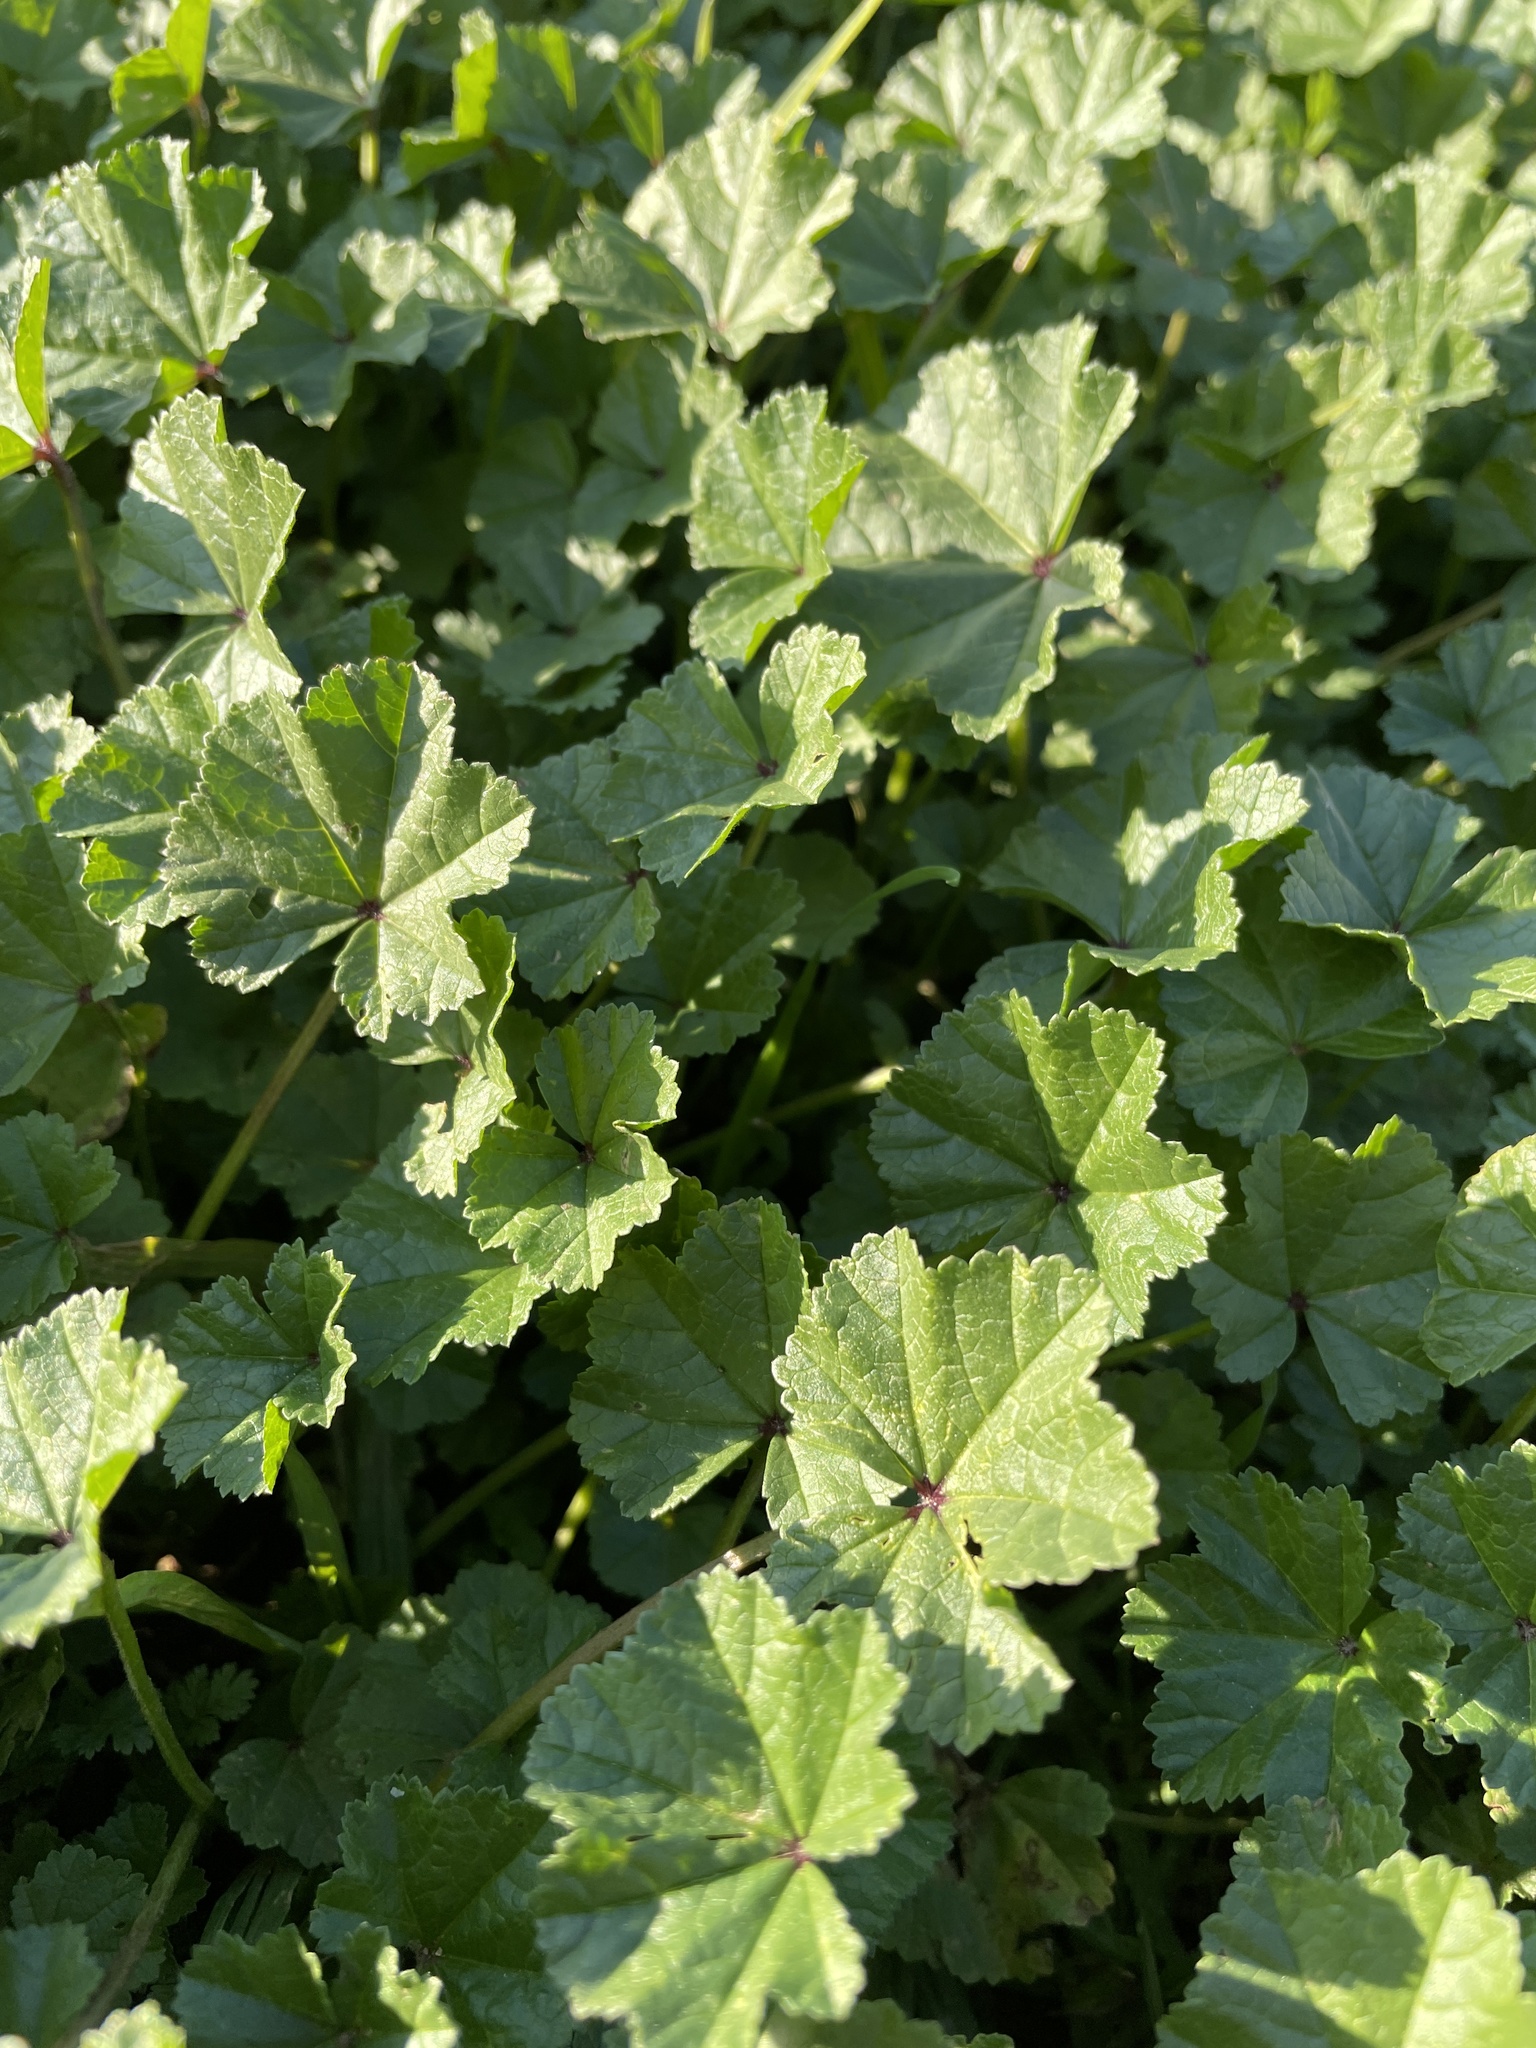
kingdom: Plantae
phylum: Tracheophyta
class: Magnoliopsida
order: Malvales
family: Malvaceae
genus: Malva
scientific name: Malva
